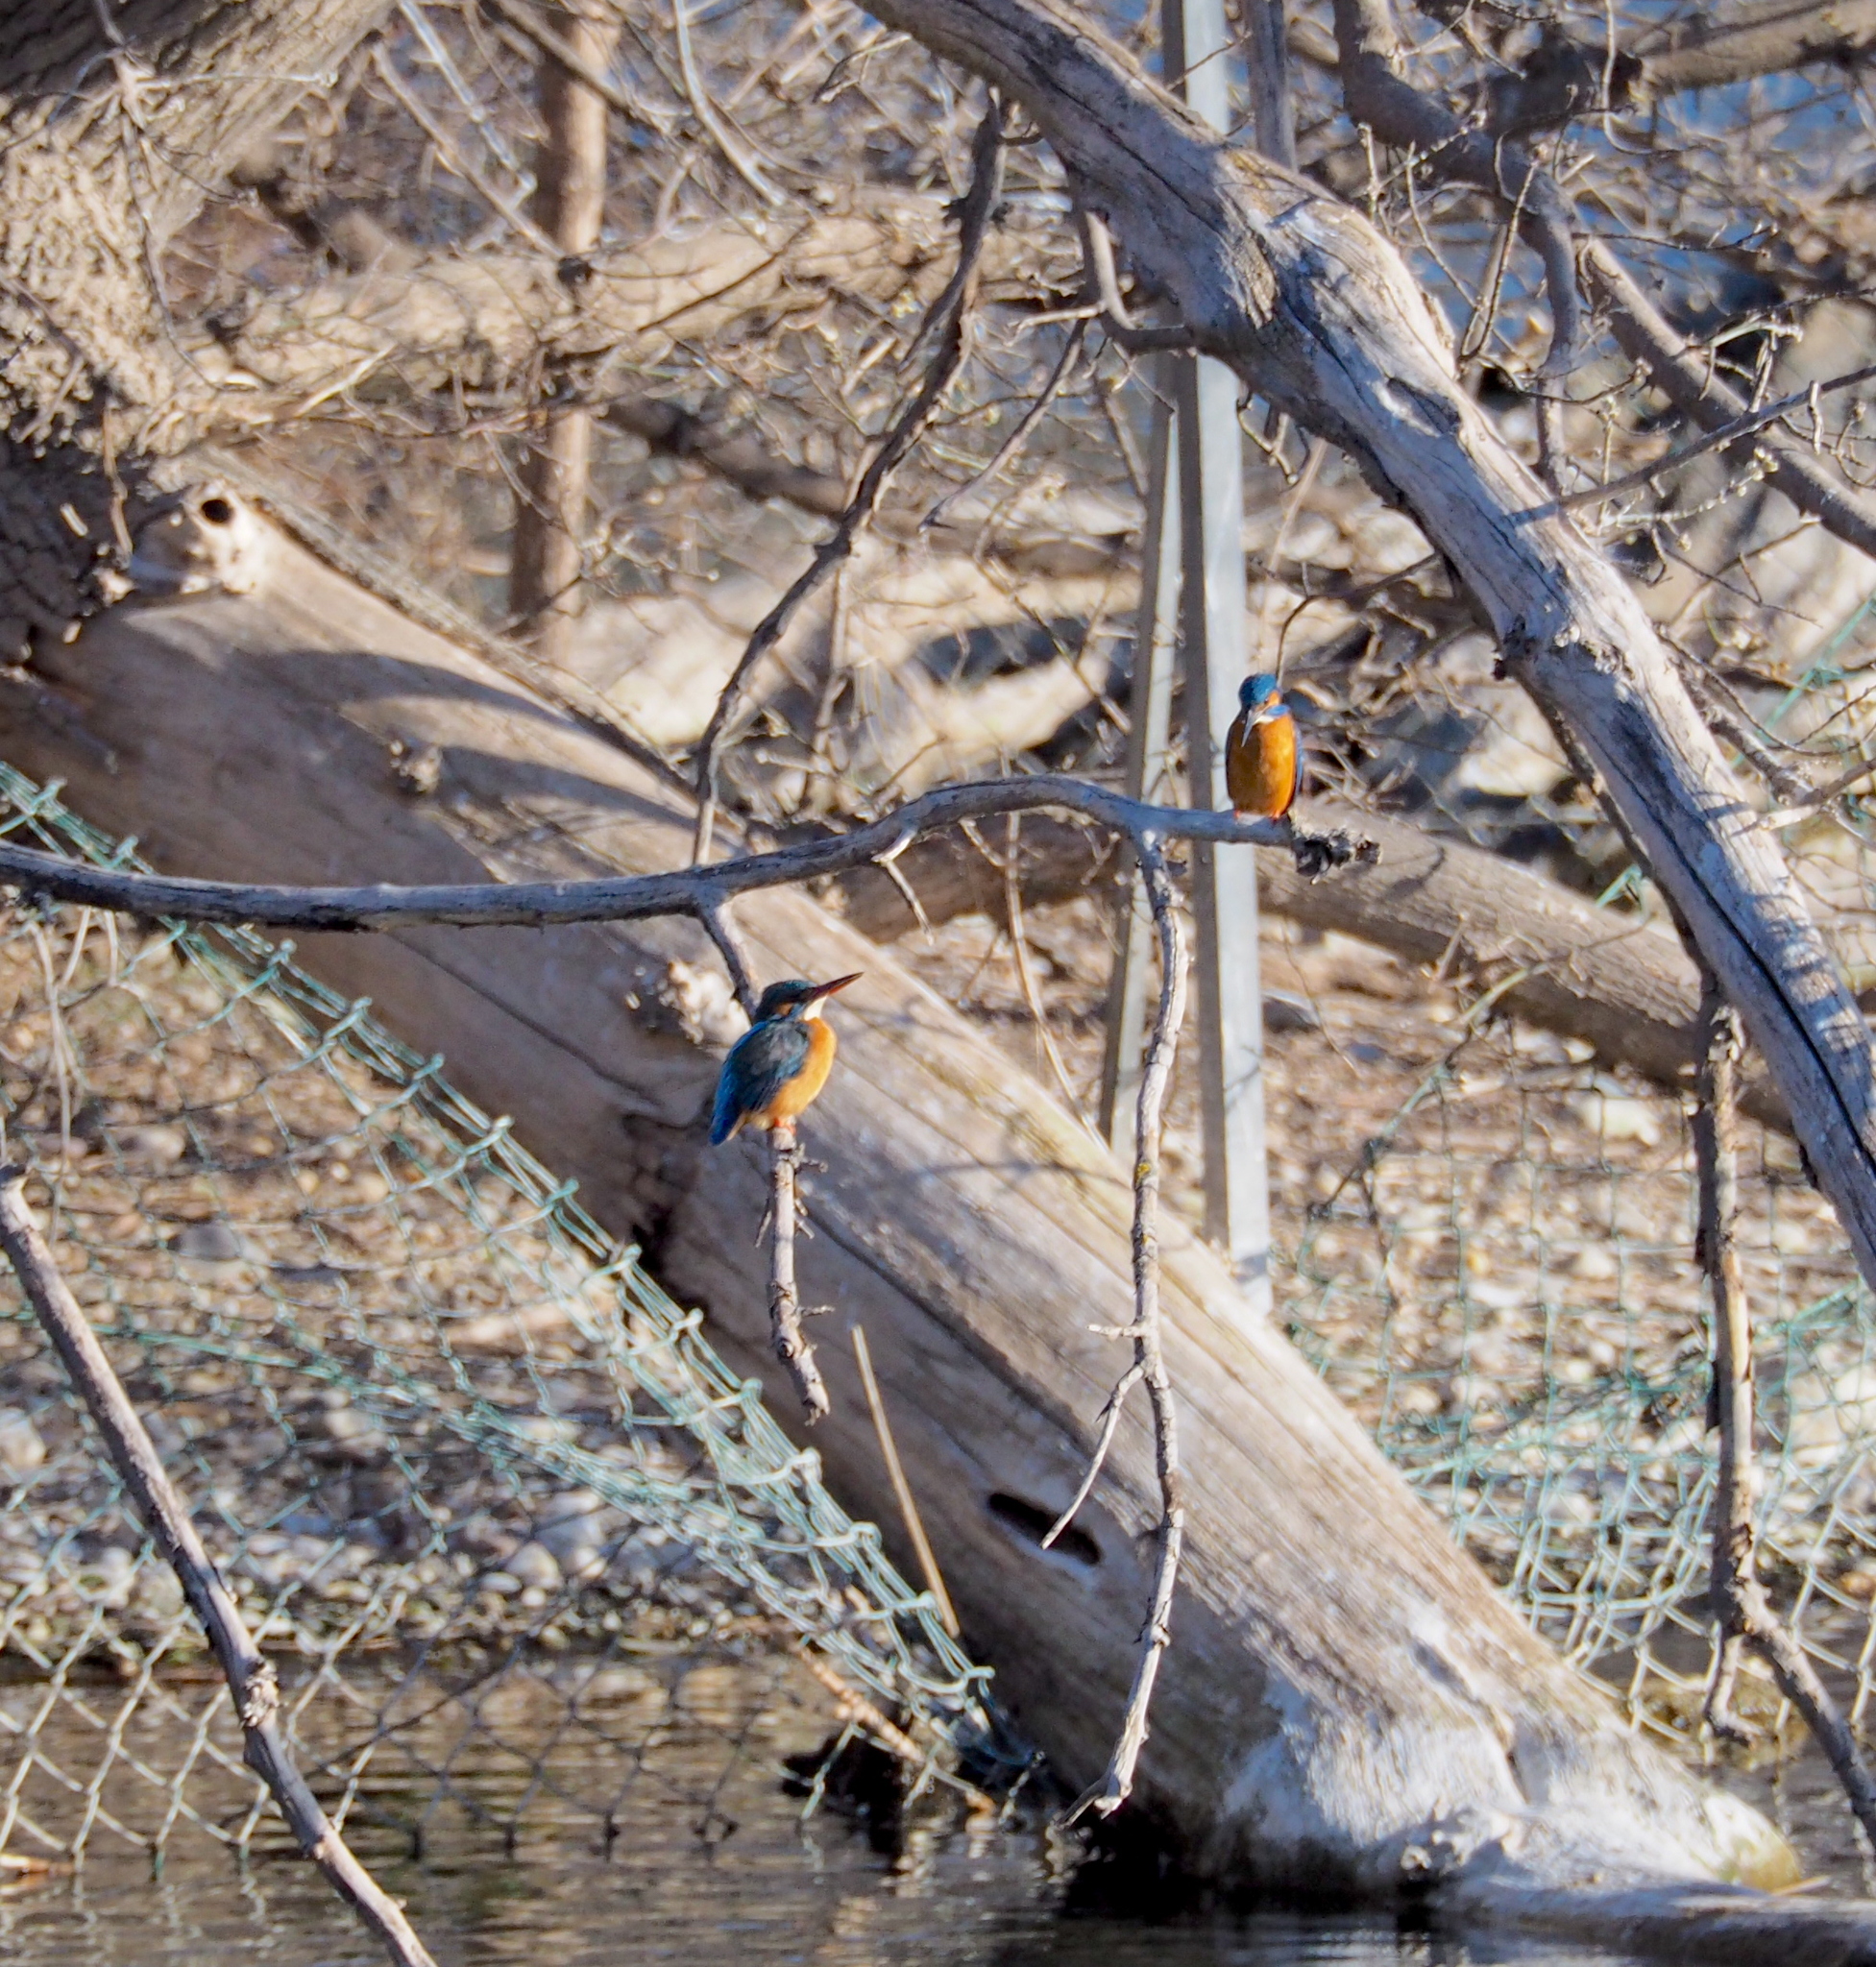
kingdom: Animalia
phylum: Chordata
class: Aves
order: Coraciiformes
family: Alcedinidae
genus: Alcedo
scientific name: Alcedo atthis
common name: Common kingfisher
